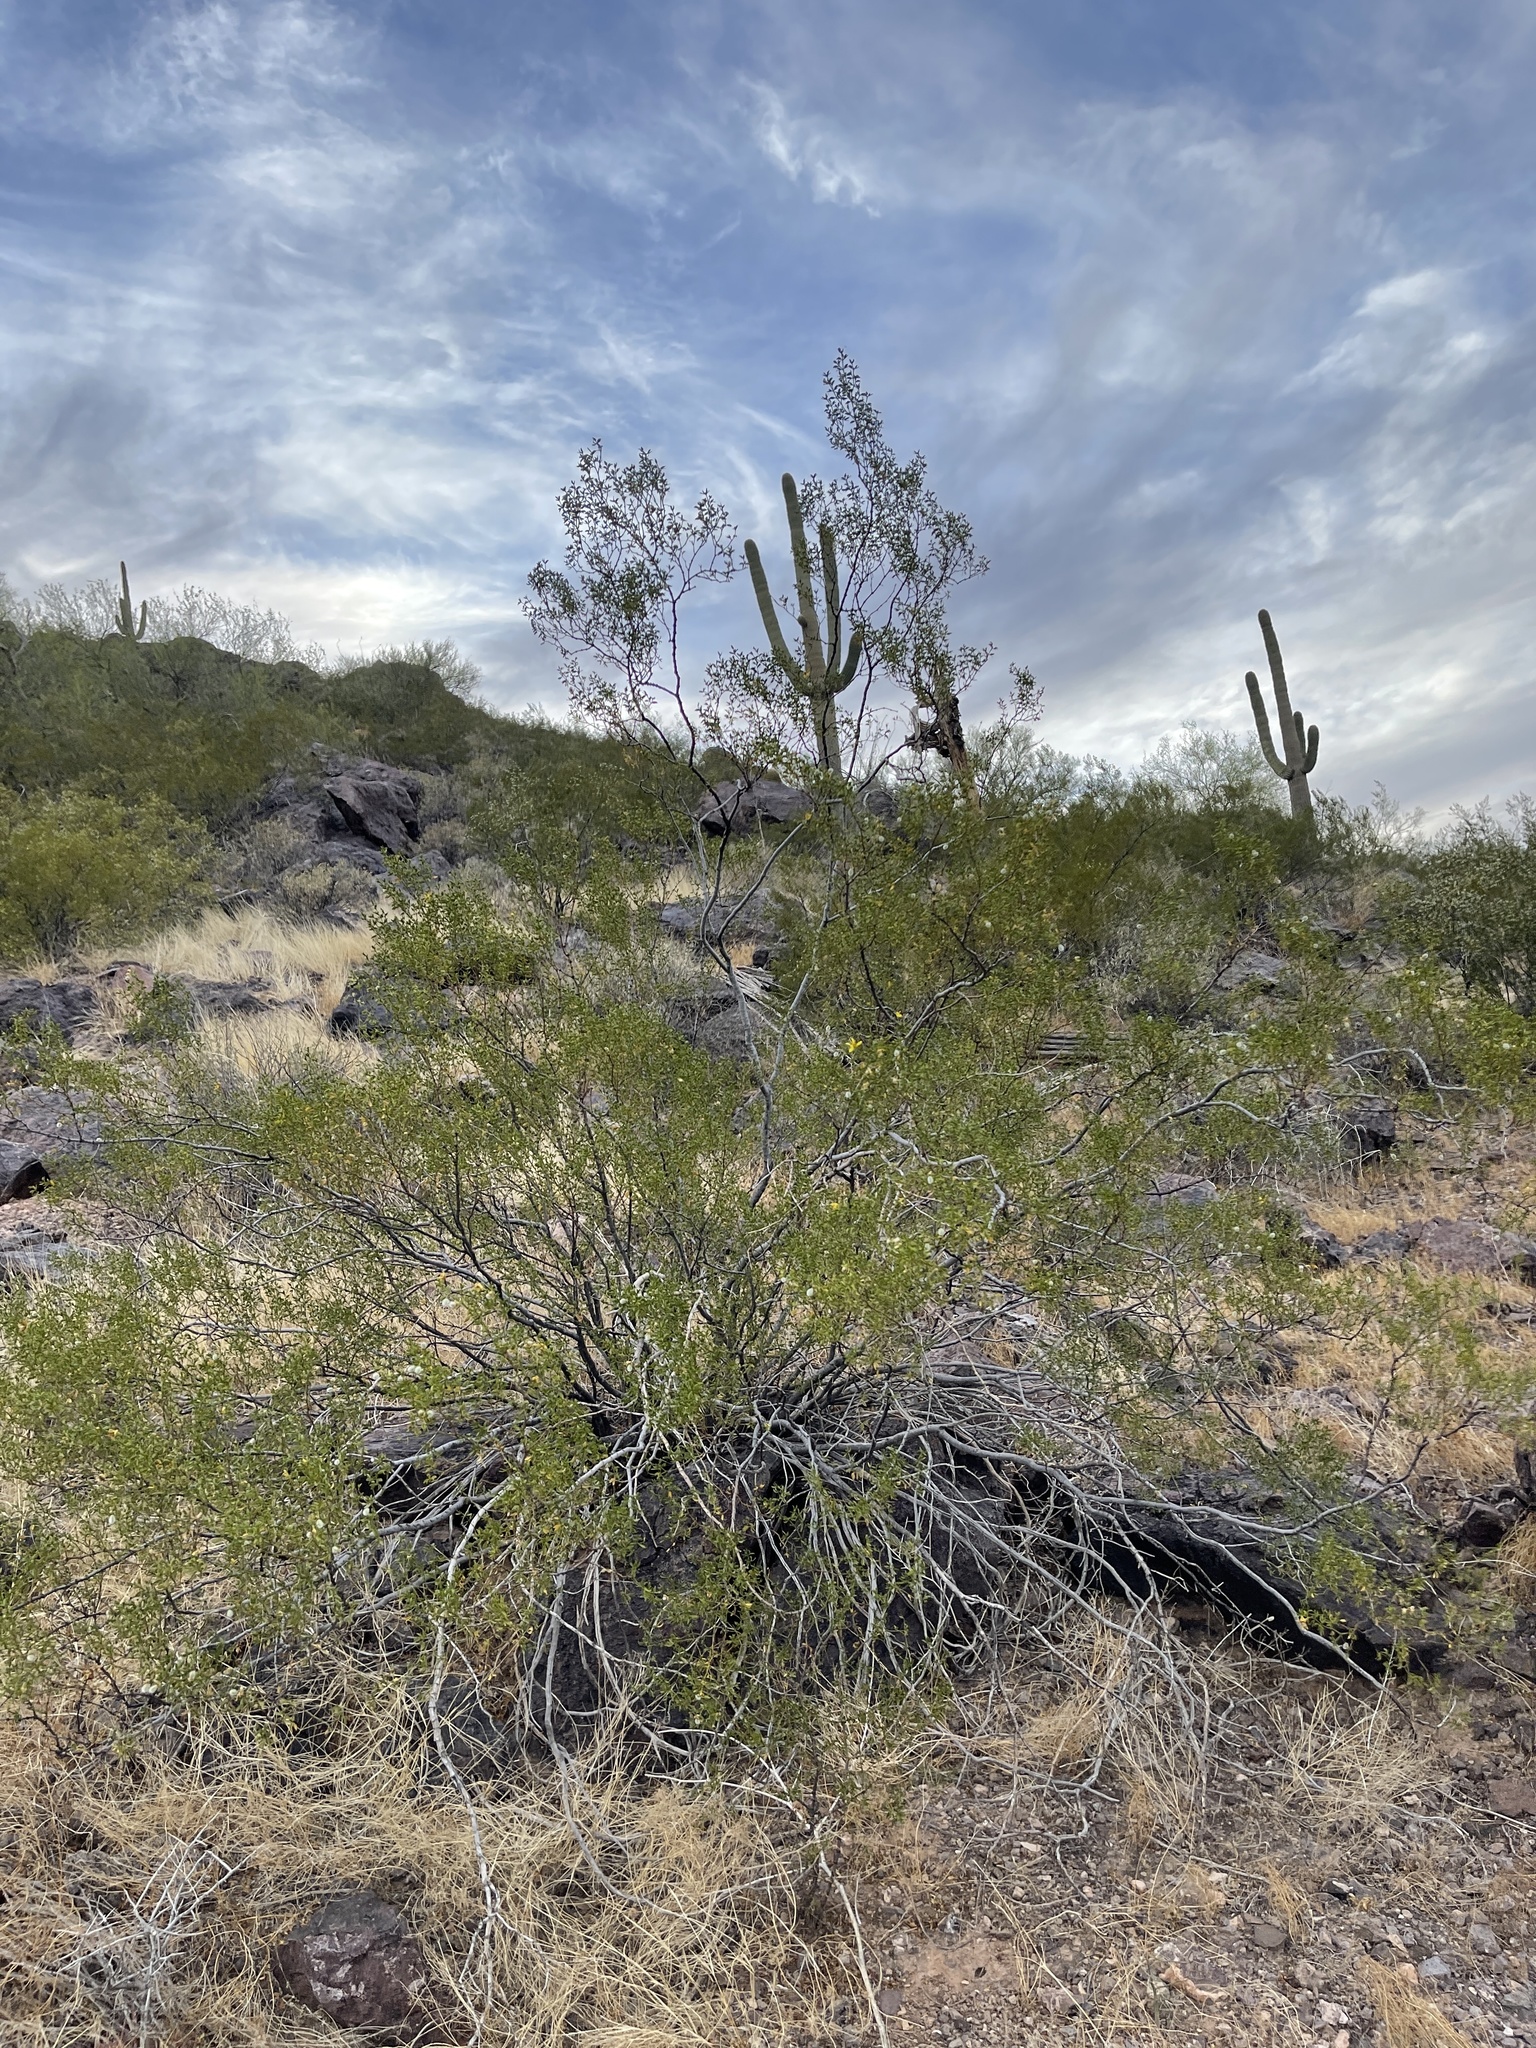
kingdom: Plantae
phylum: Tracheophyta
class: Magnoliopsida
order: Zygophyllales
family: Zygophyllaceae
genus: Larrea
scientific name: Larrea tridentata
